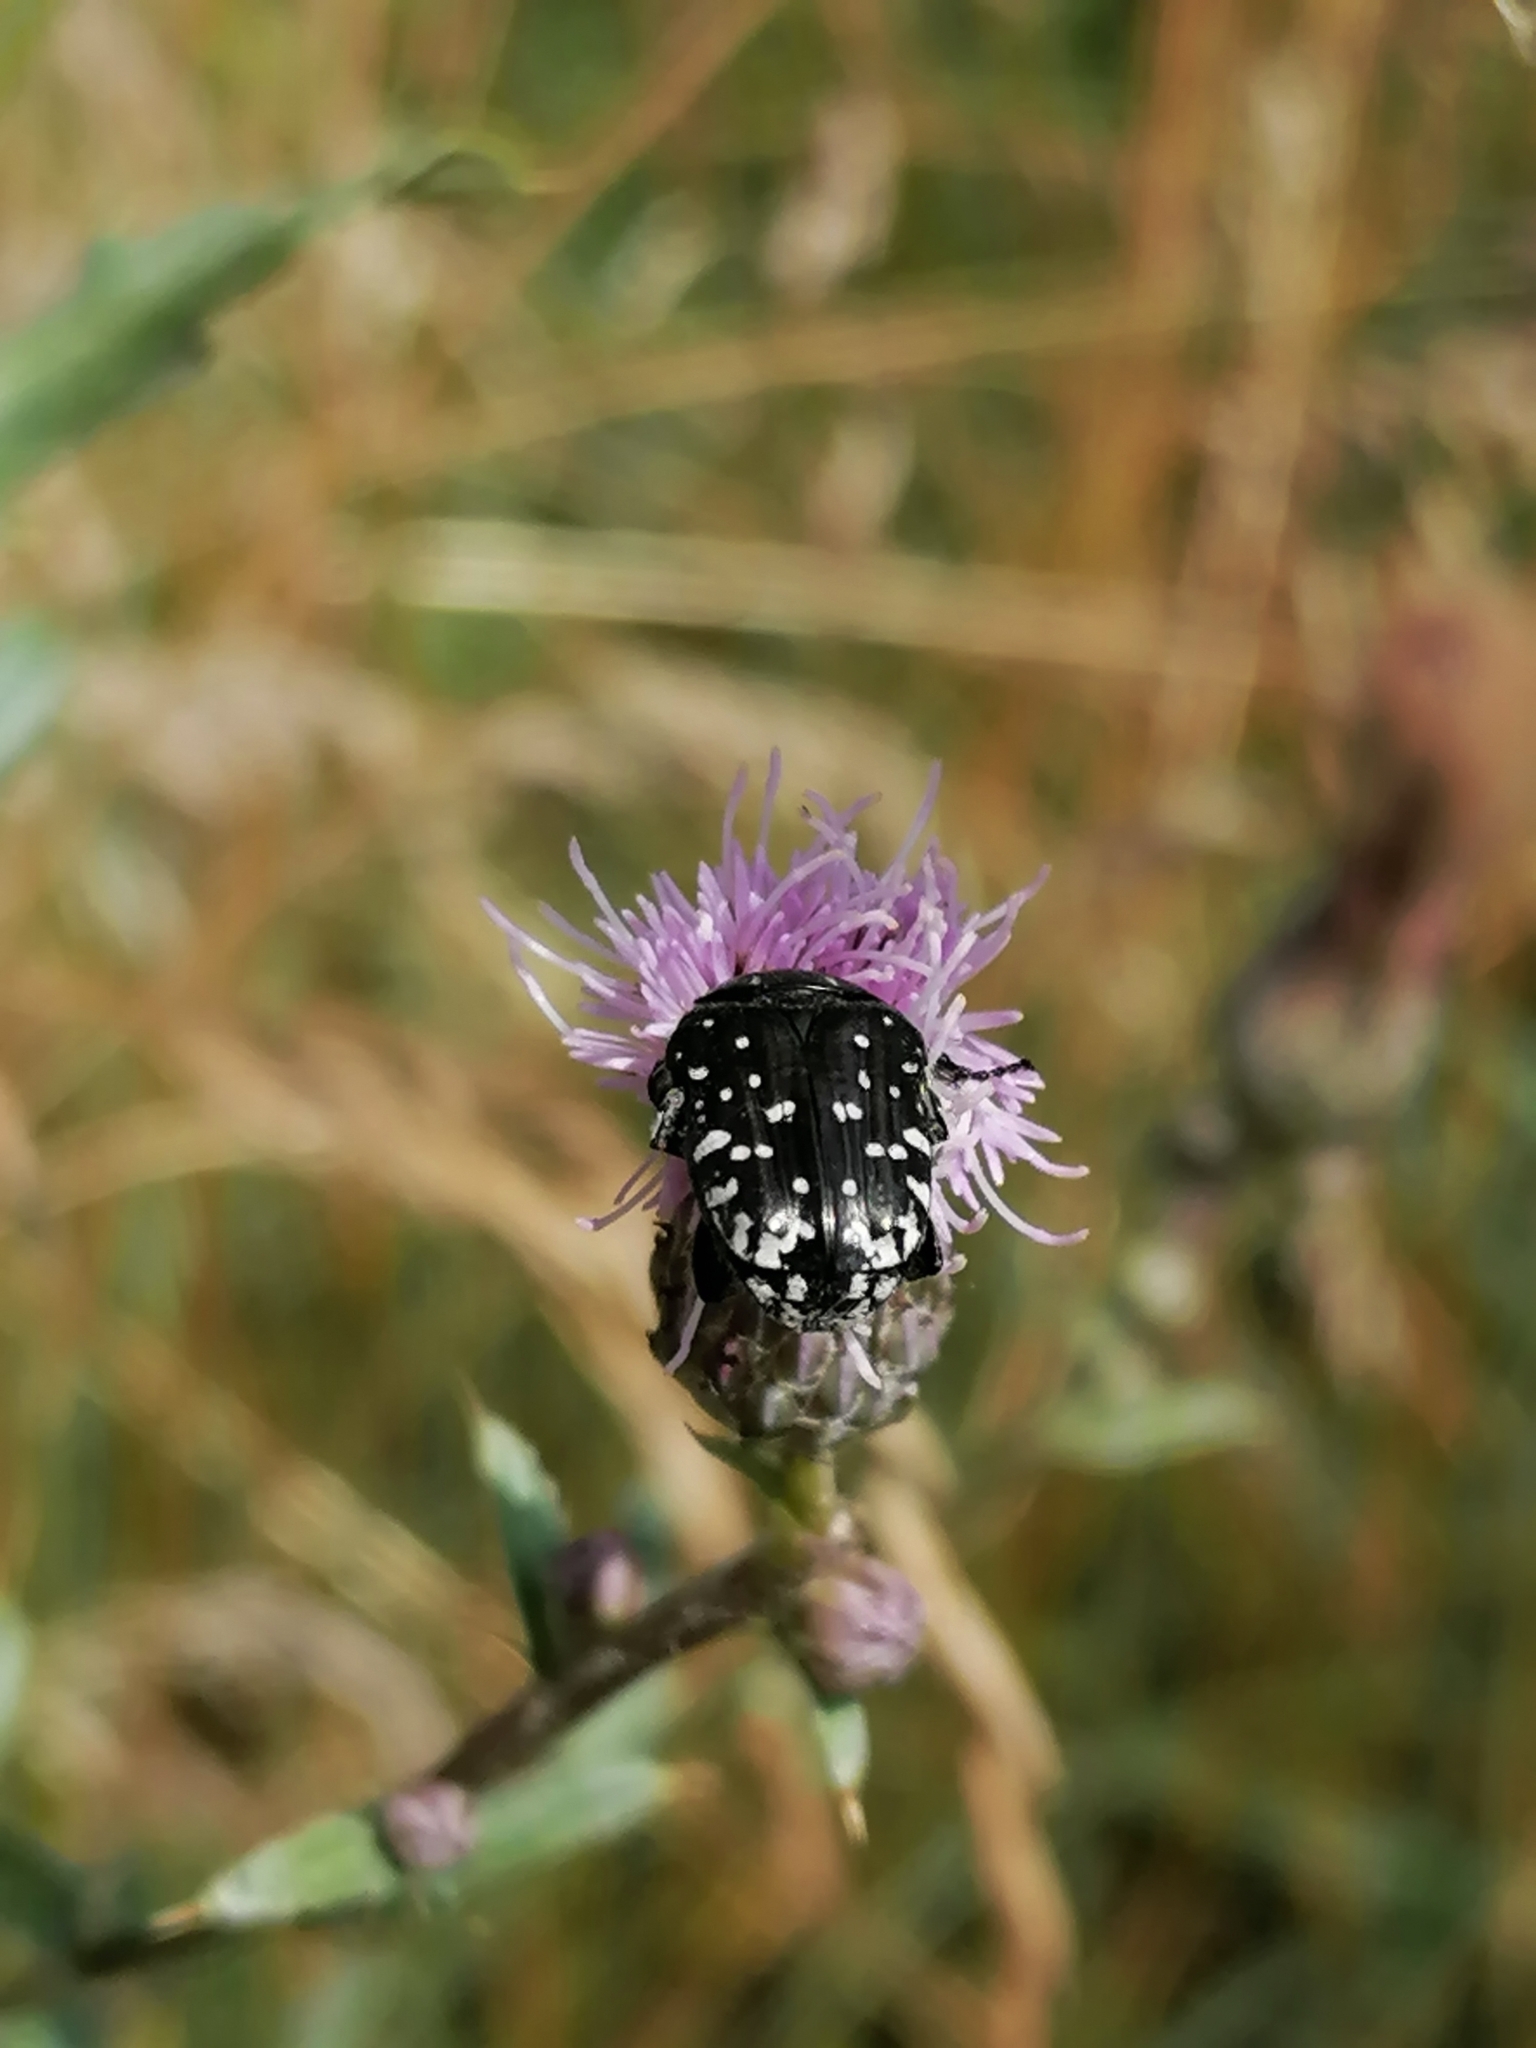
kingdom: Animalia
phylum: Arthropoda
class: Insecta
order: Coleoptera
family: Scarabaeidae
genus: Oxythyrea
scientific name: Oxythyrea funesta
